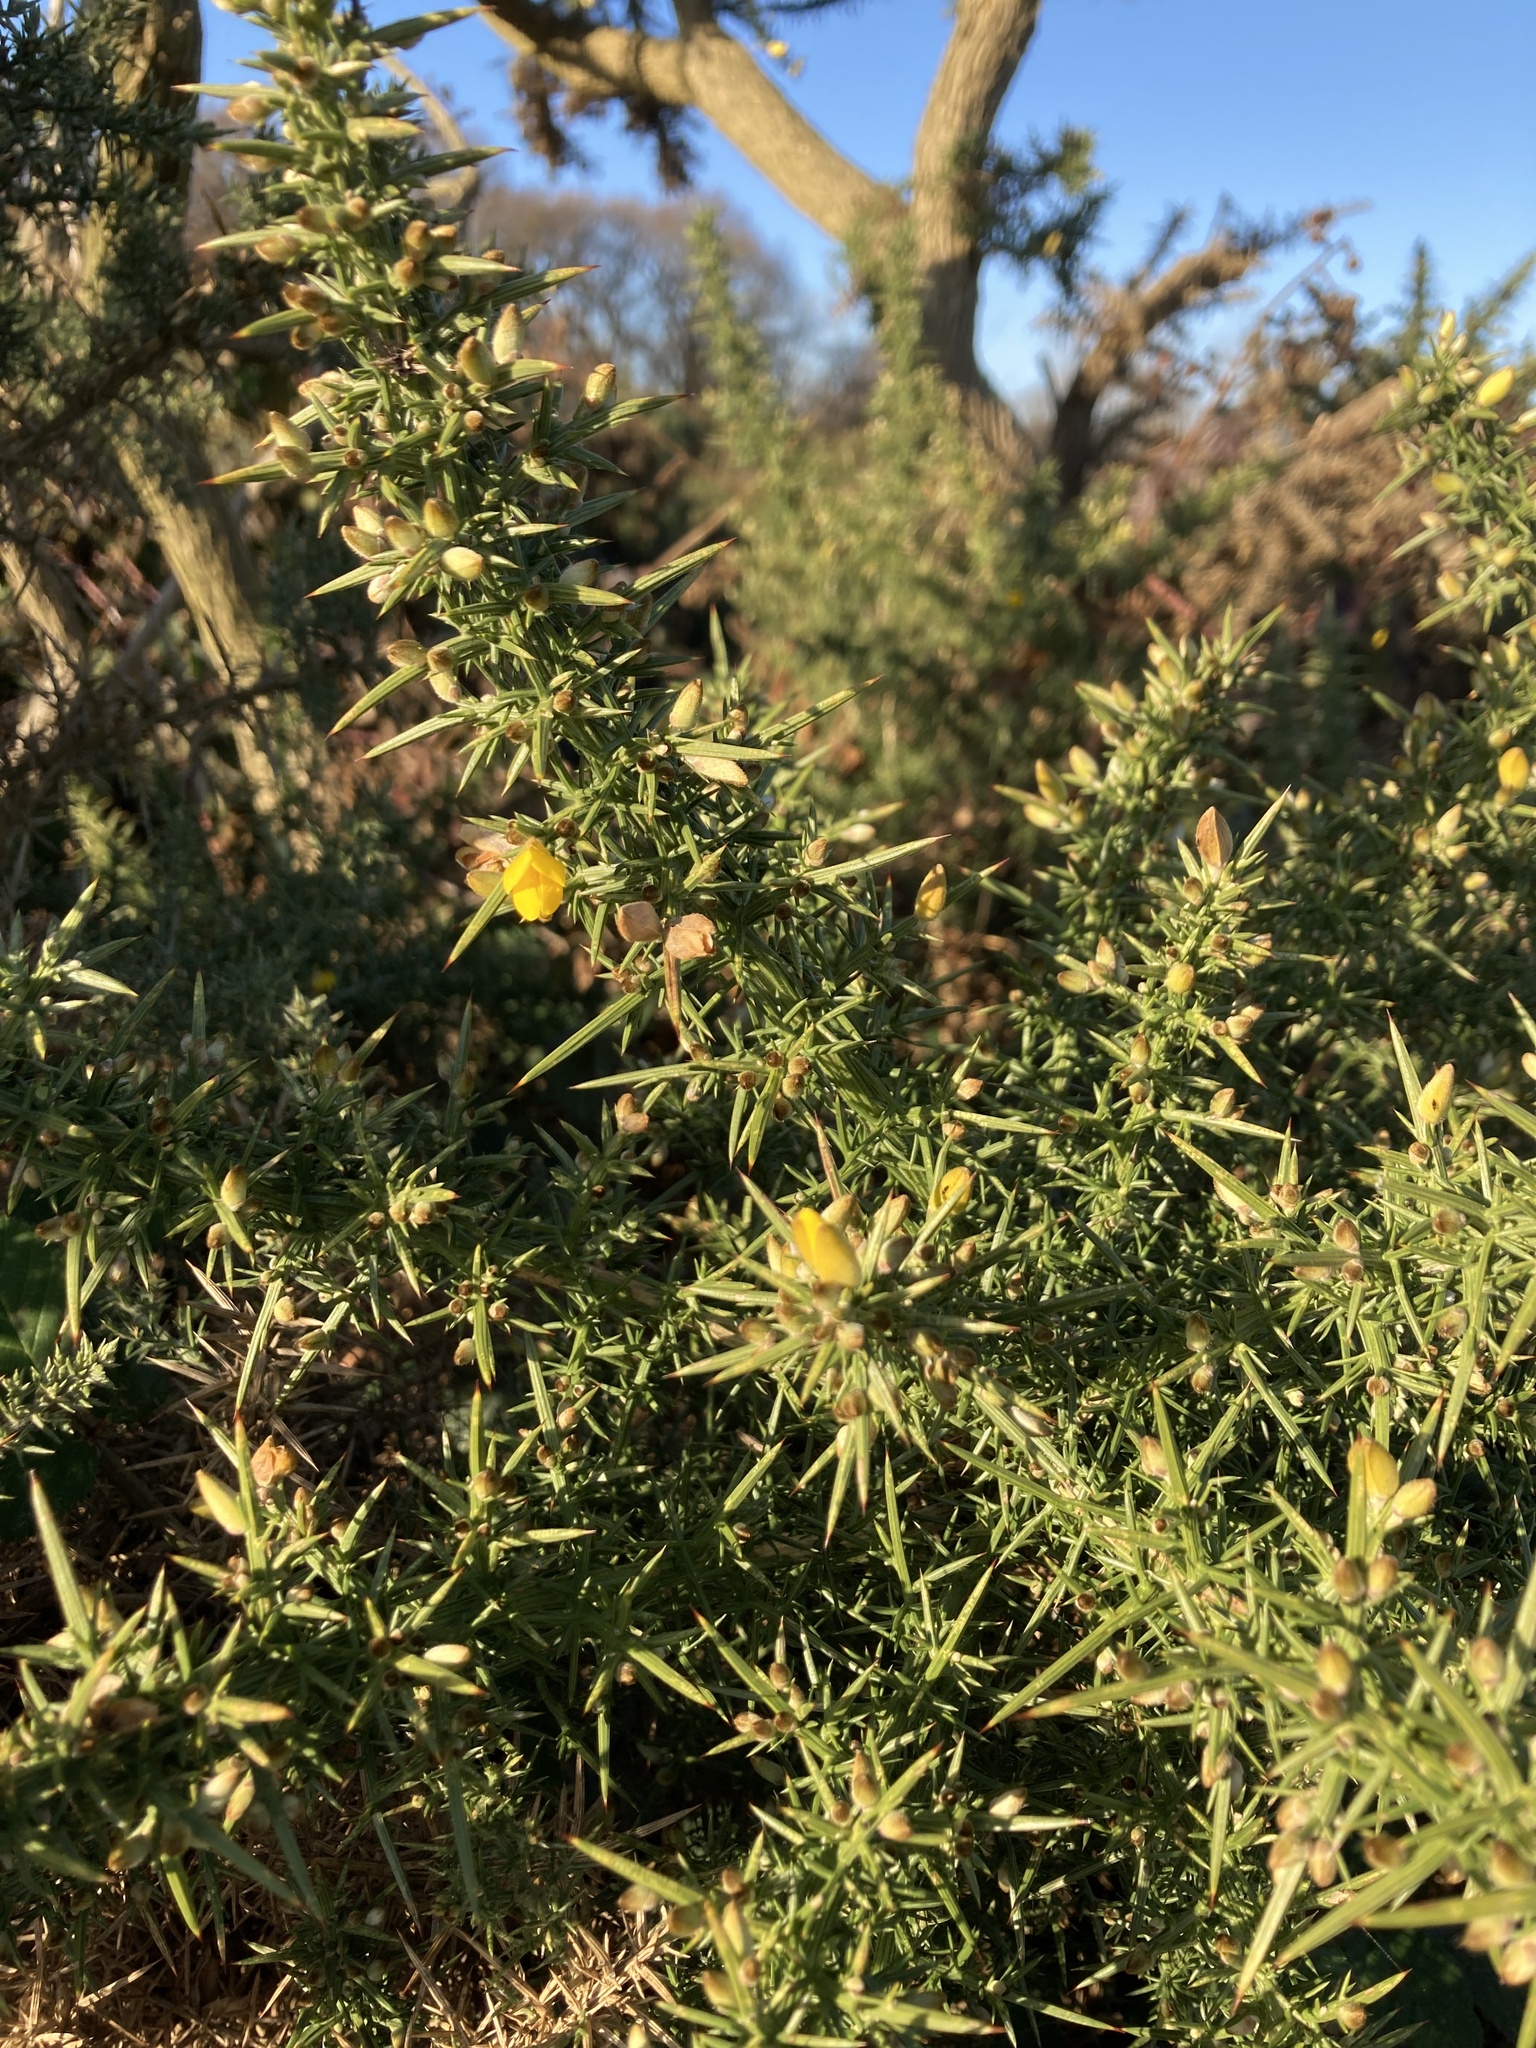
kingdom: Plantae
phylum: Tracheophyta
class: Magnoliopsida
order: Fabales
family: Fabaceae
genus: Ulex
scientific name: Ulex europaeus
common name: Common gorse
